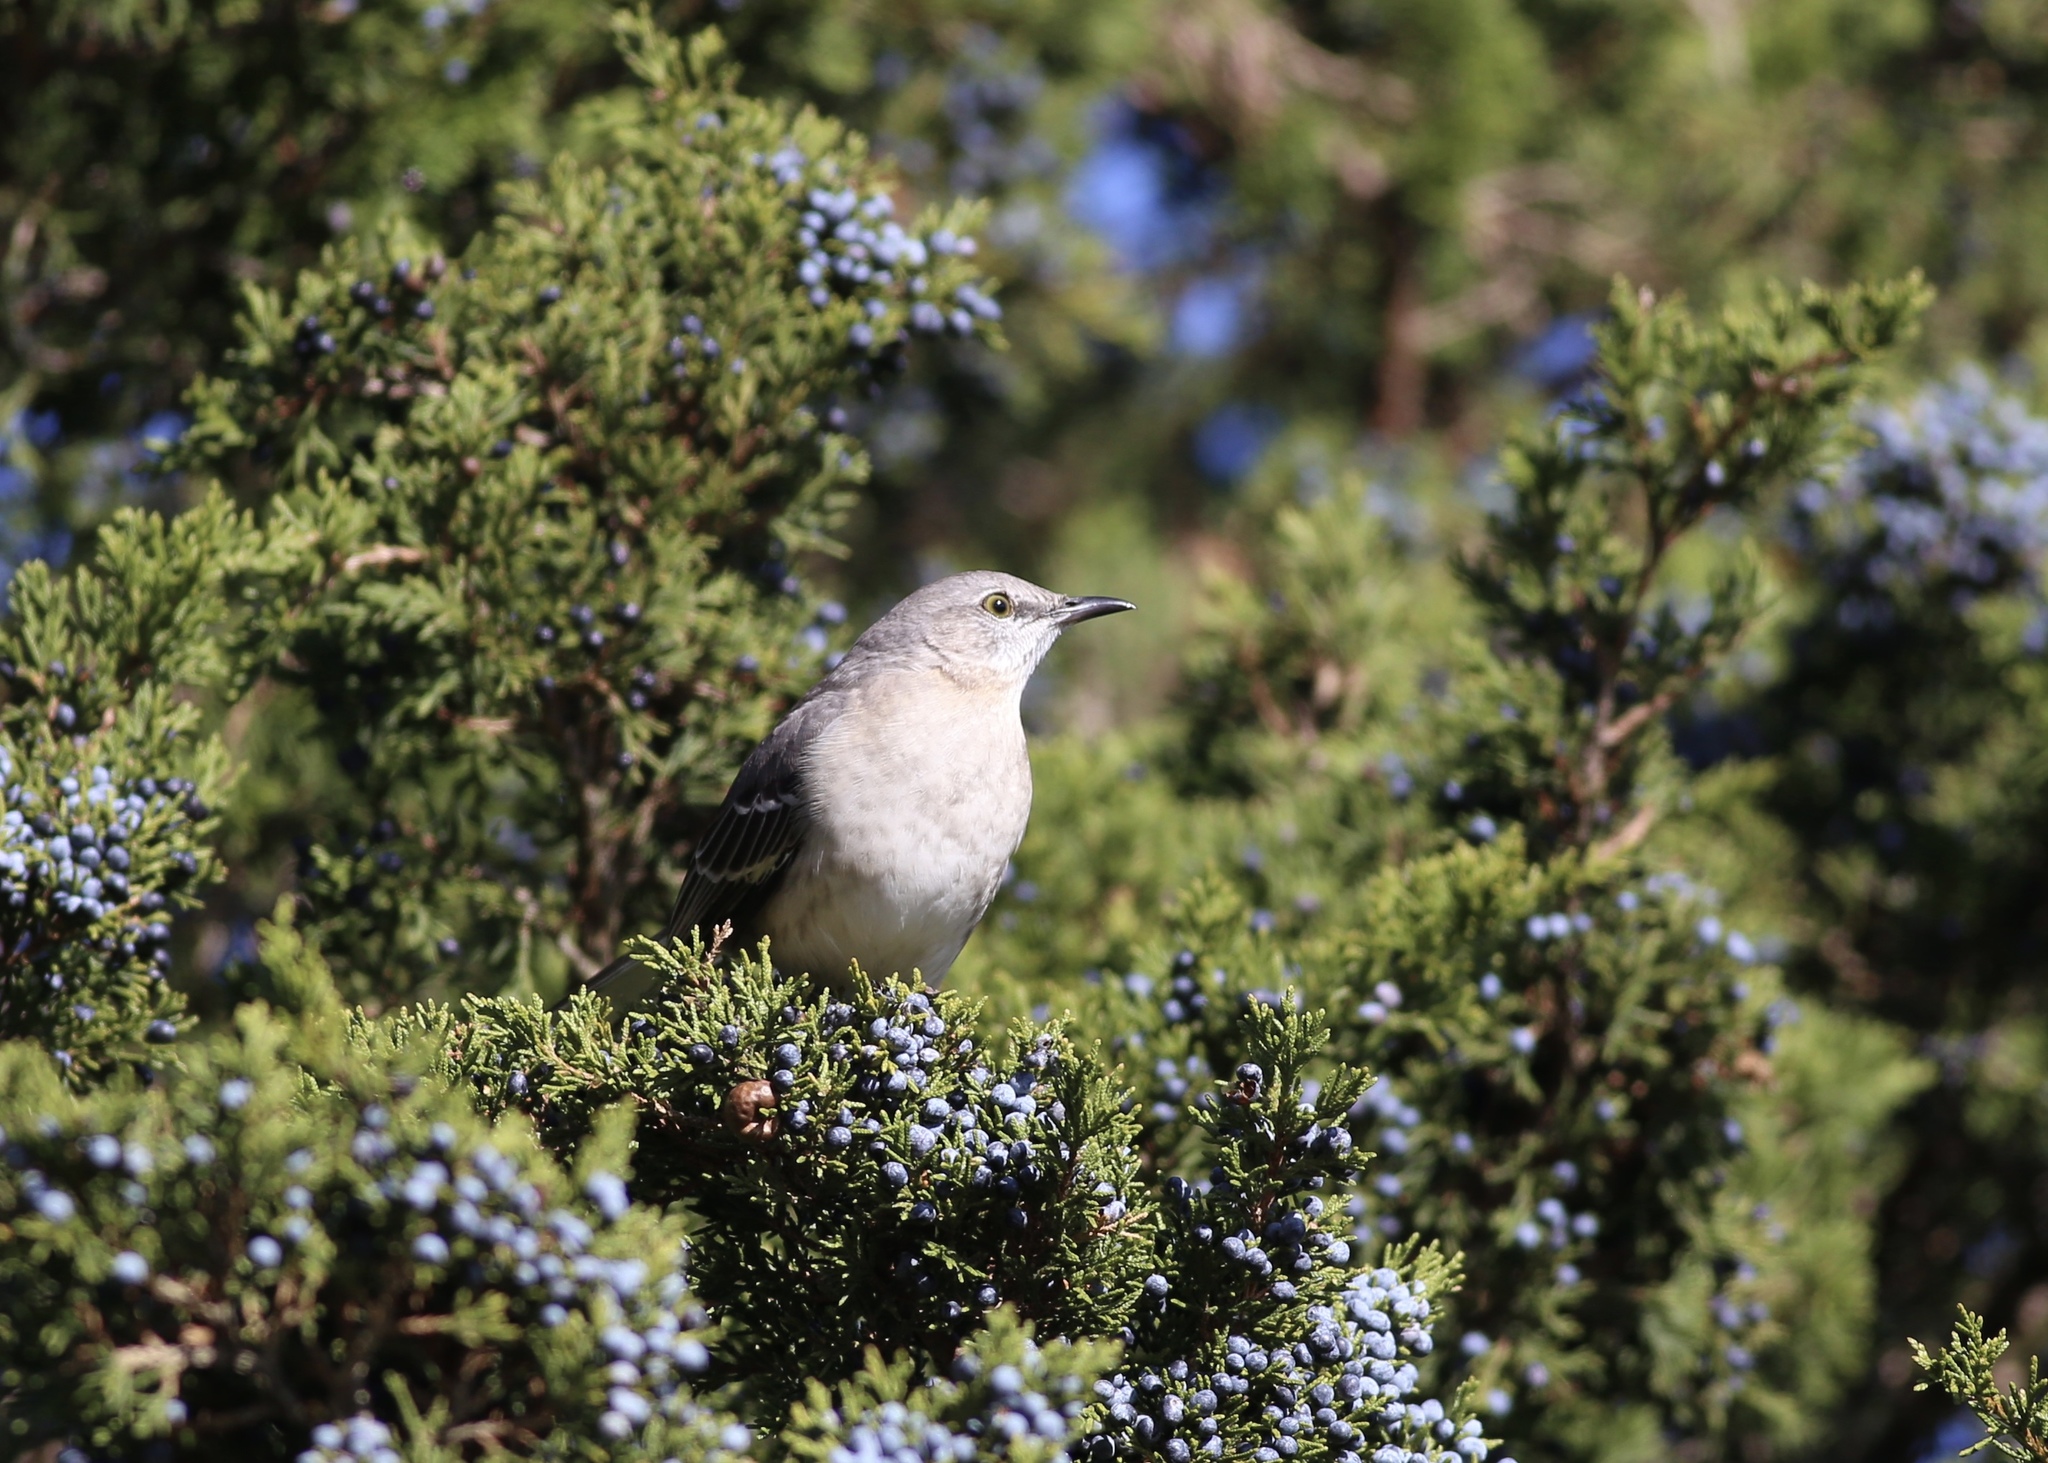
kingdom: Animalia
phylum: Chordata
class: Aves
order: Passeriformes
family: Mimidae
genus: Mimus
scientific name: Mimus polyglottos
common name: Northern mockingbird
